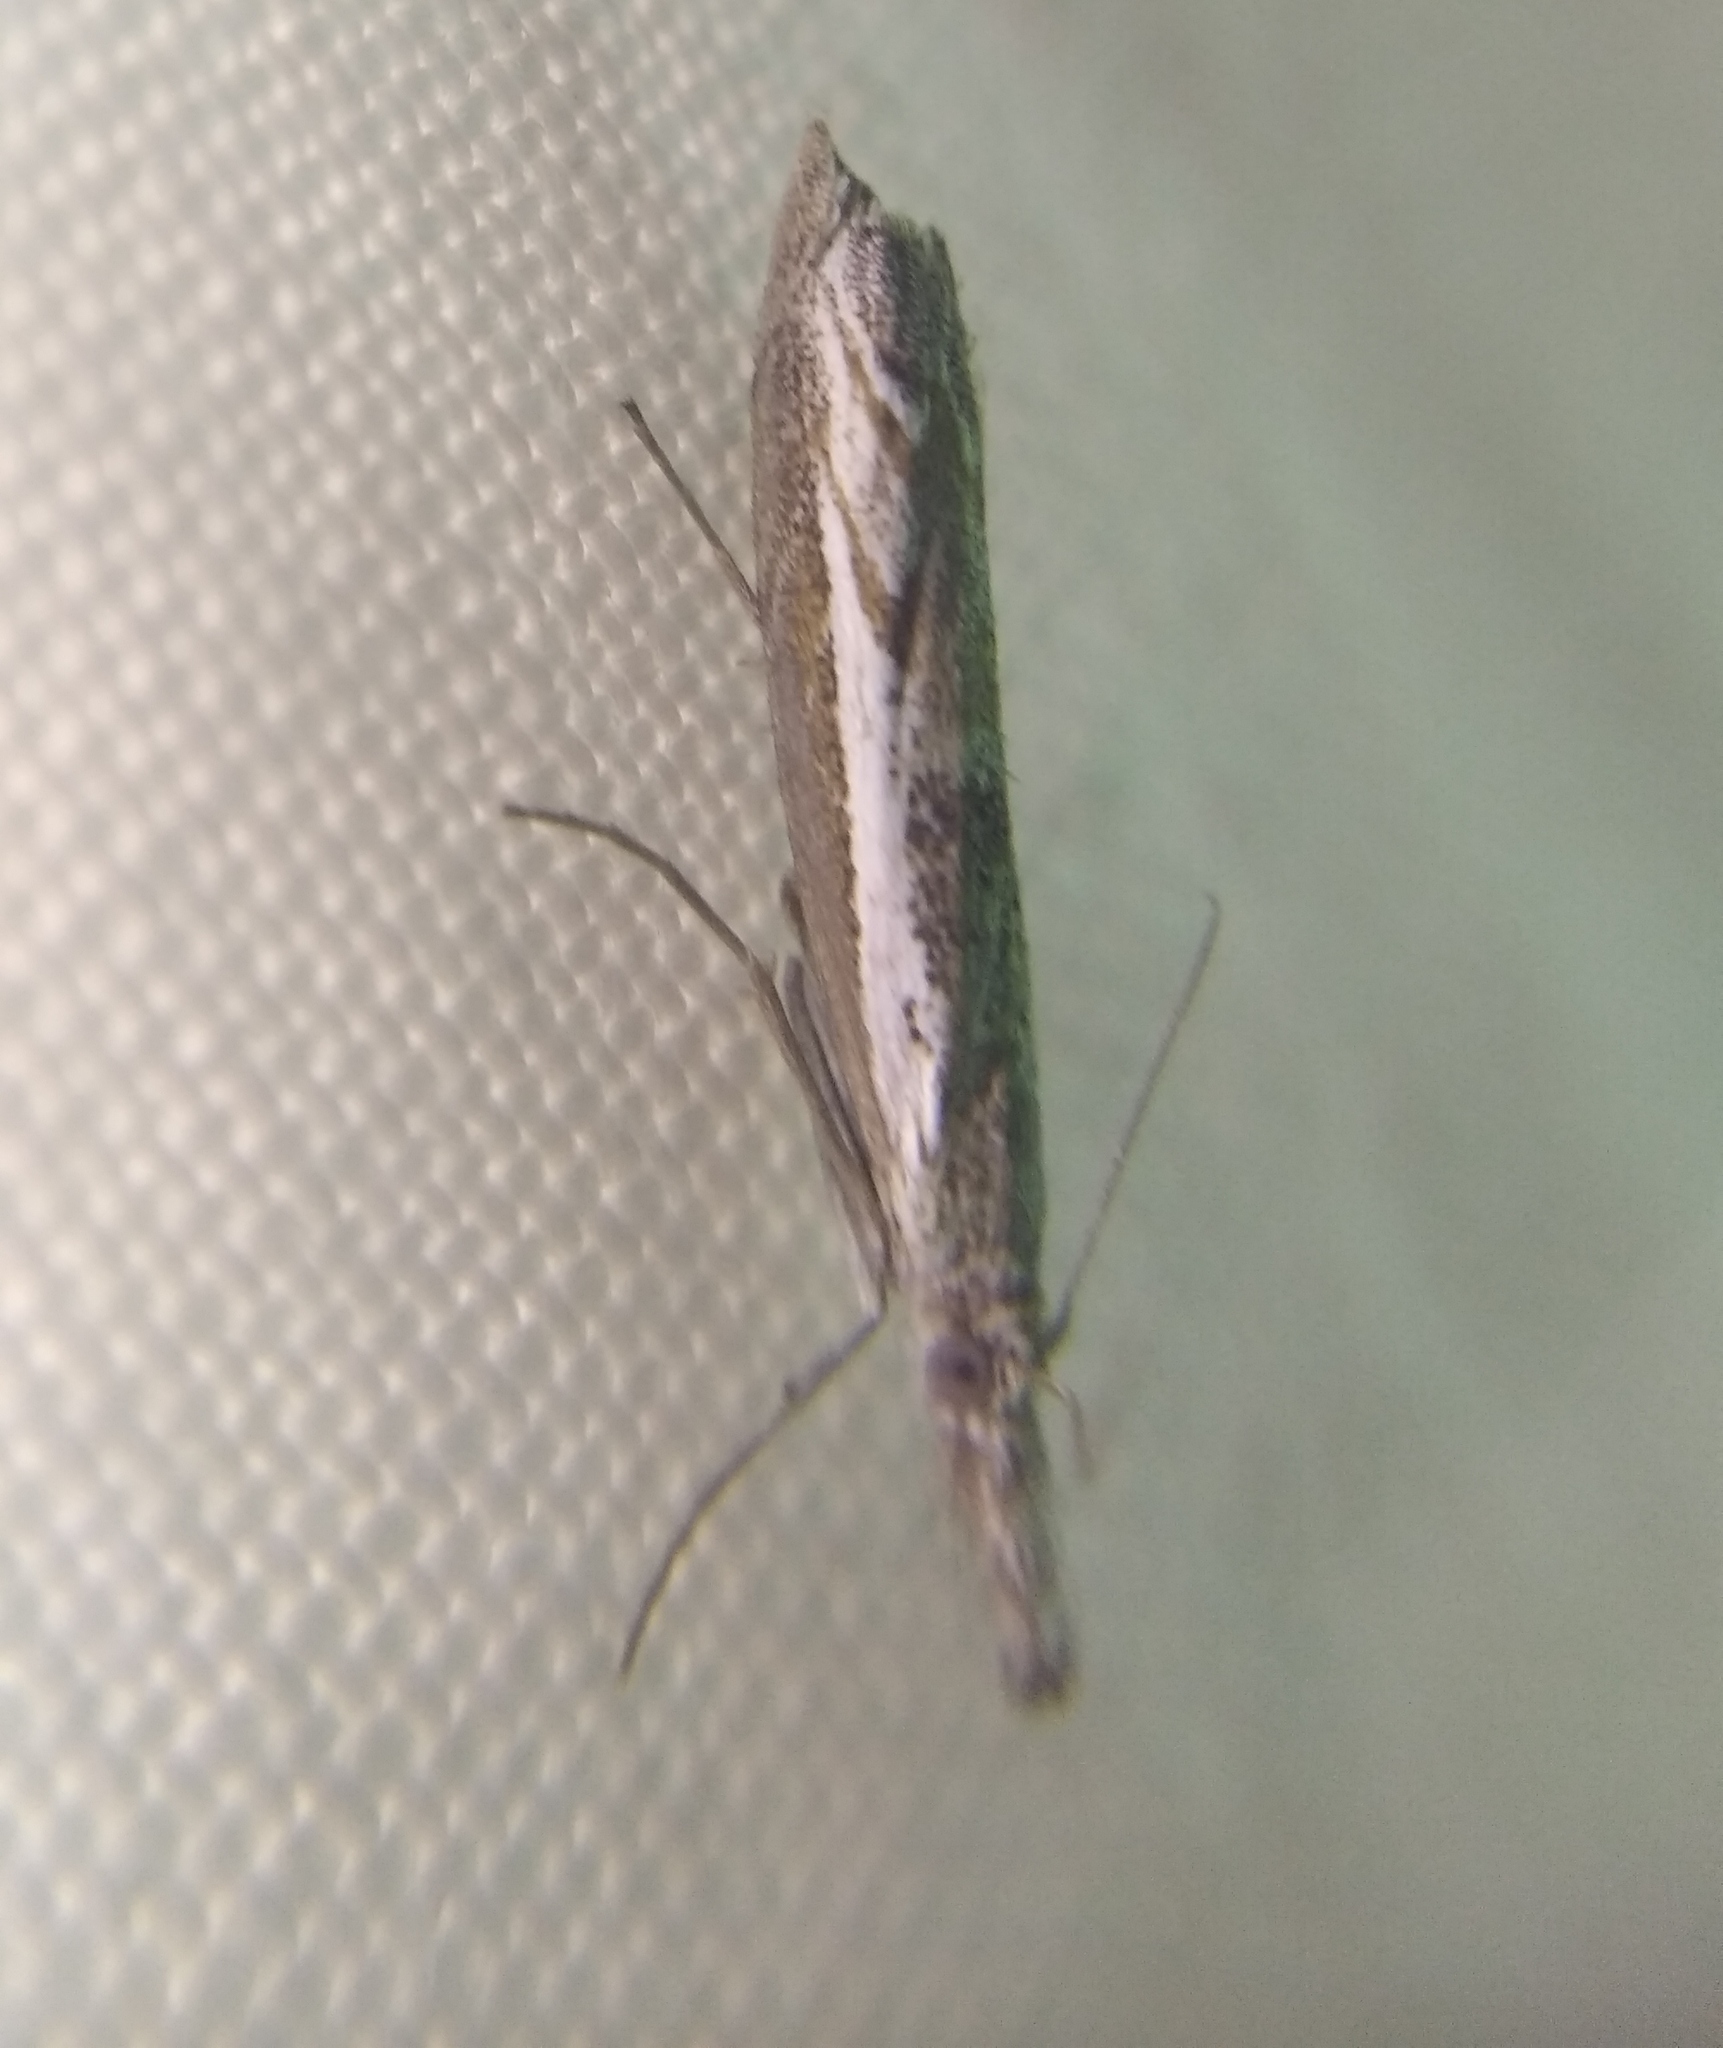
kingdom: Animalia
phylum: Arthropoda
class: Insecta
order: Lepidoptera
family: Crambidae
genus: Platytes
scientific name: Platytes alpinella
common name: Hook-tipped grass-veneer
